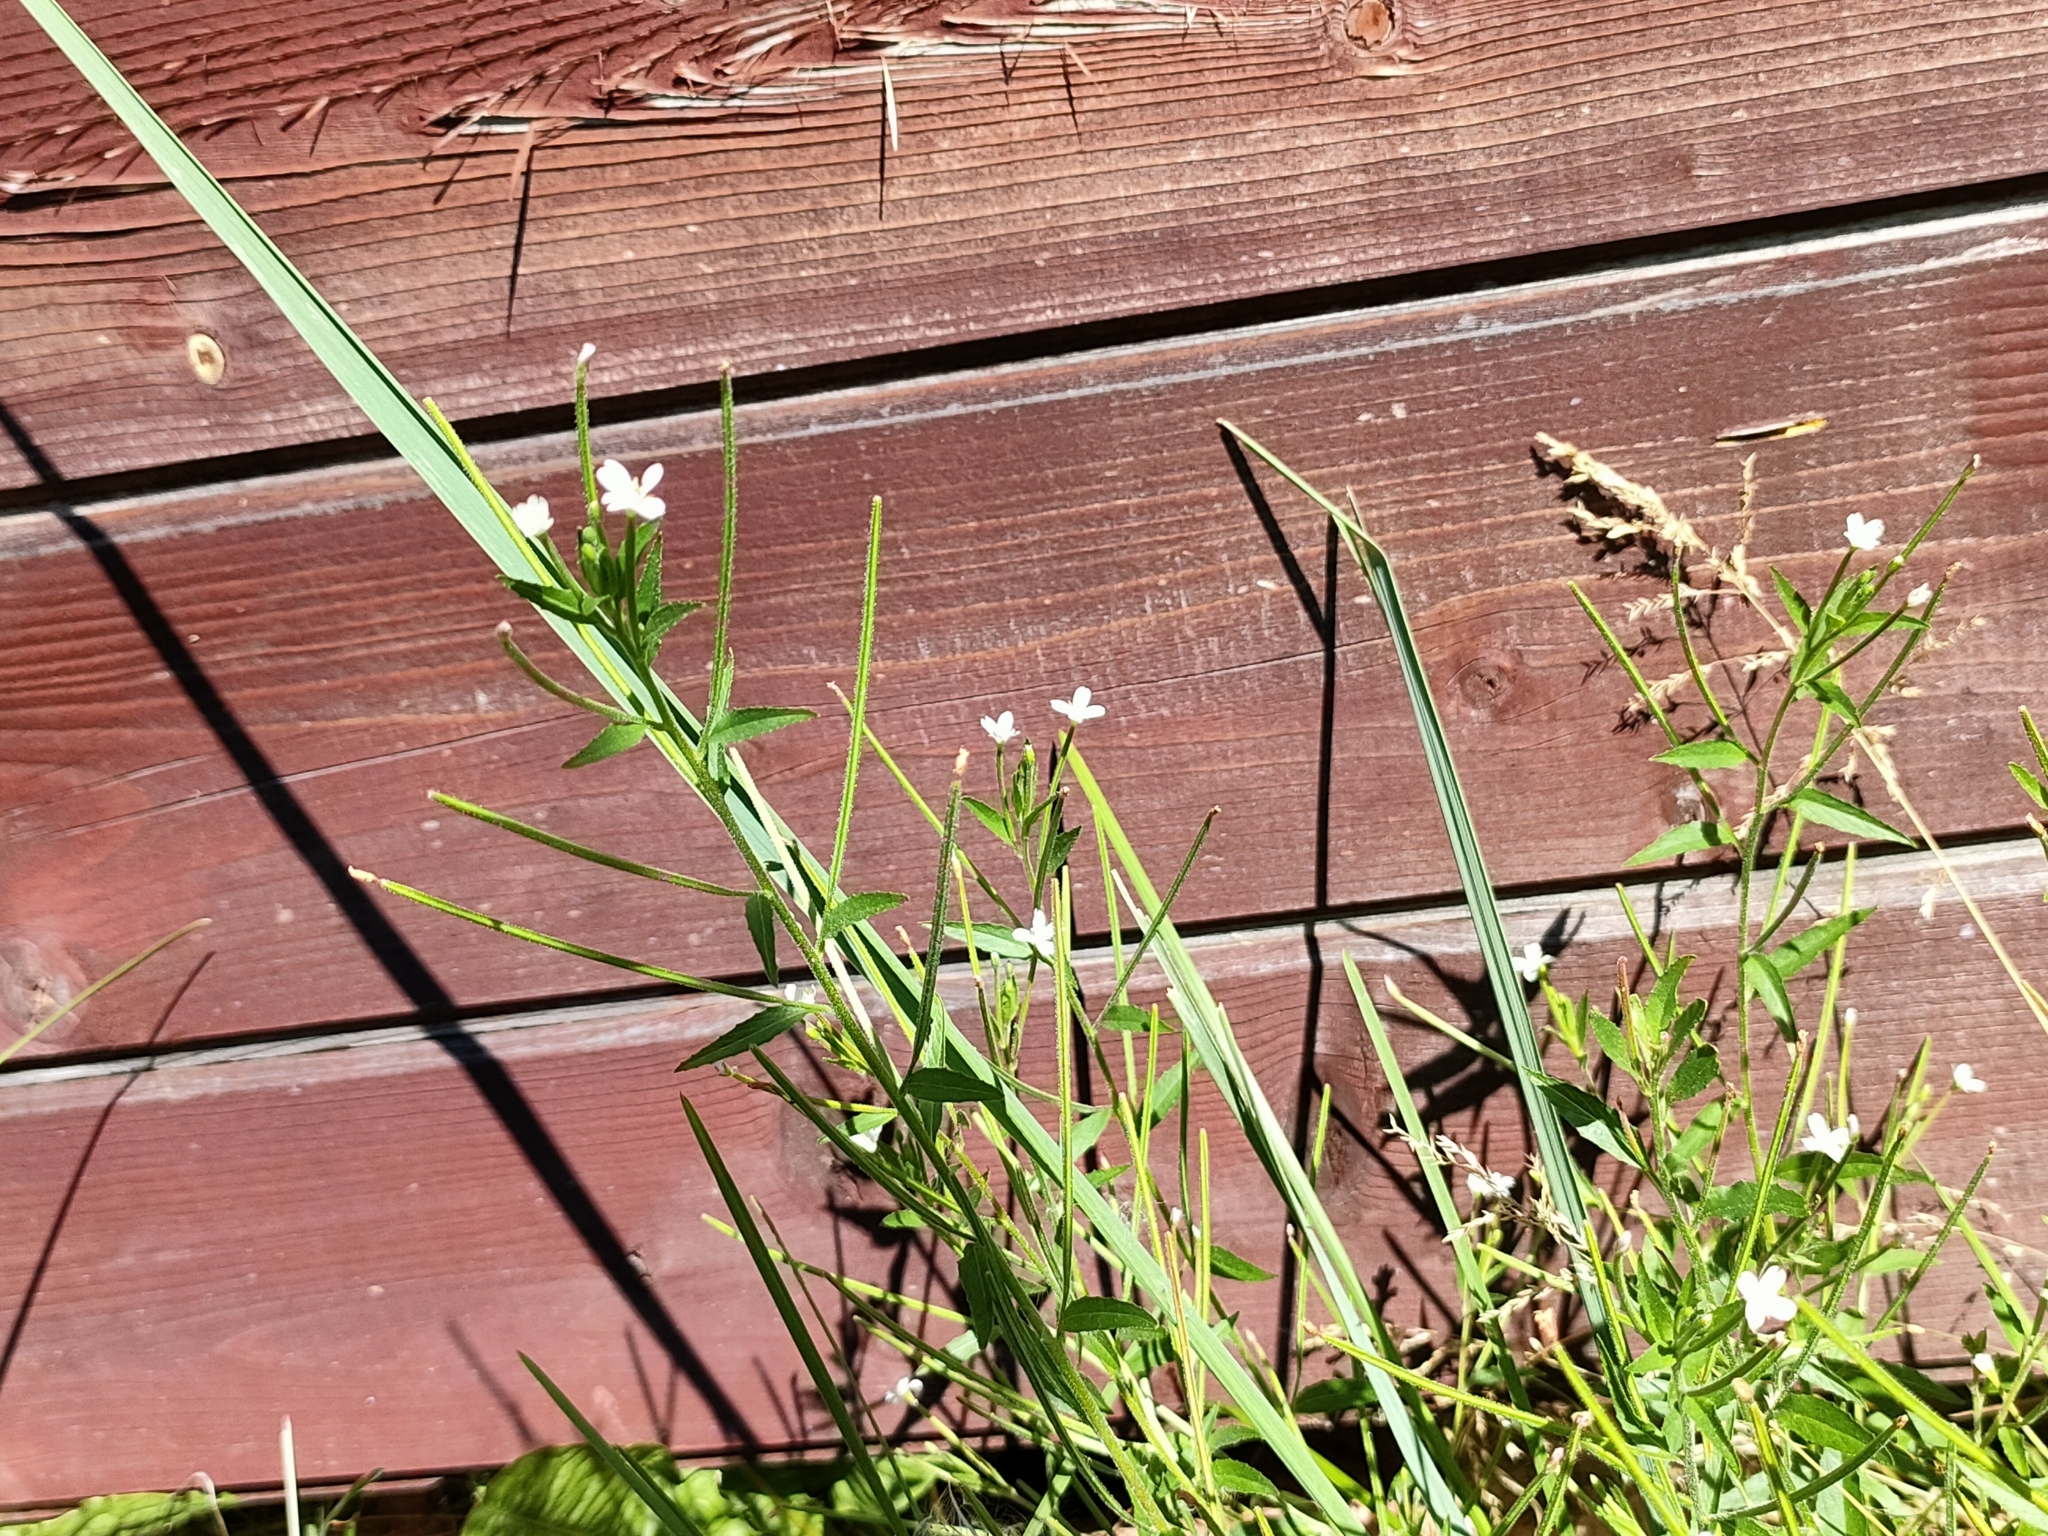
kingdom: Plantae
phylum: Tracheophyta
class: Magnoliopsida
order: Myrtales
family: Onagraceae
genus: Epilobium
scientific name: Epilobium pseudorubescens
